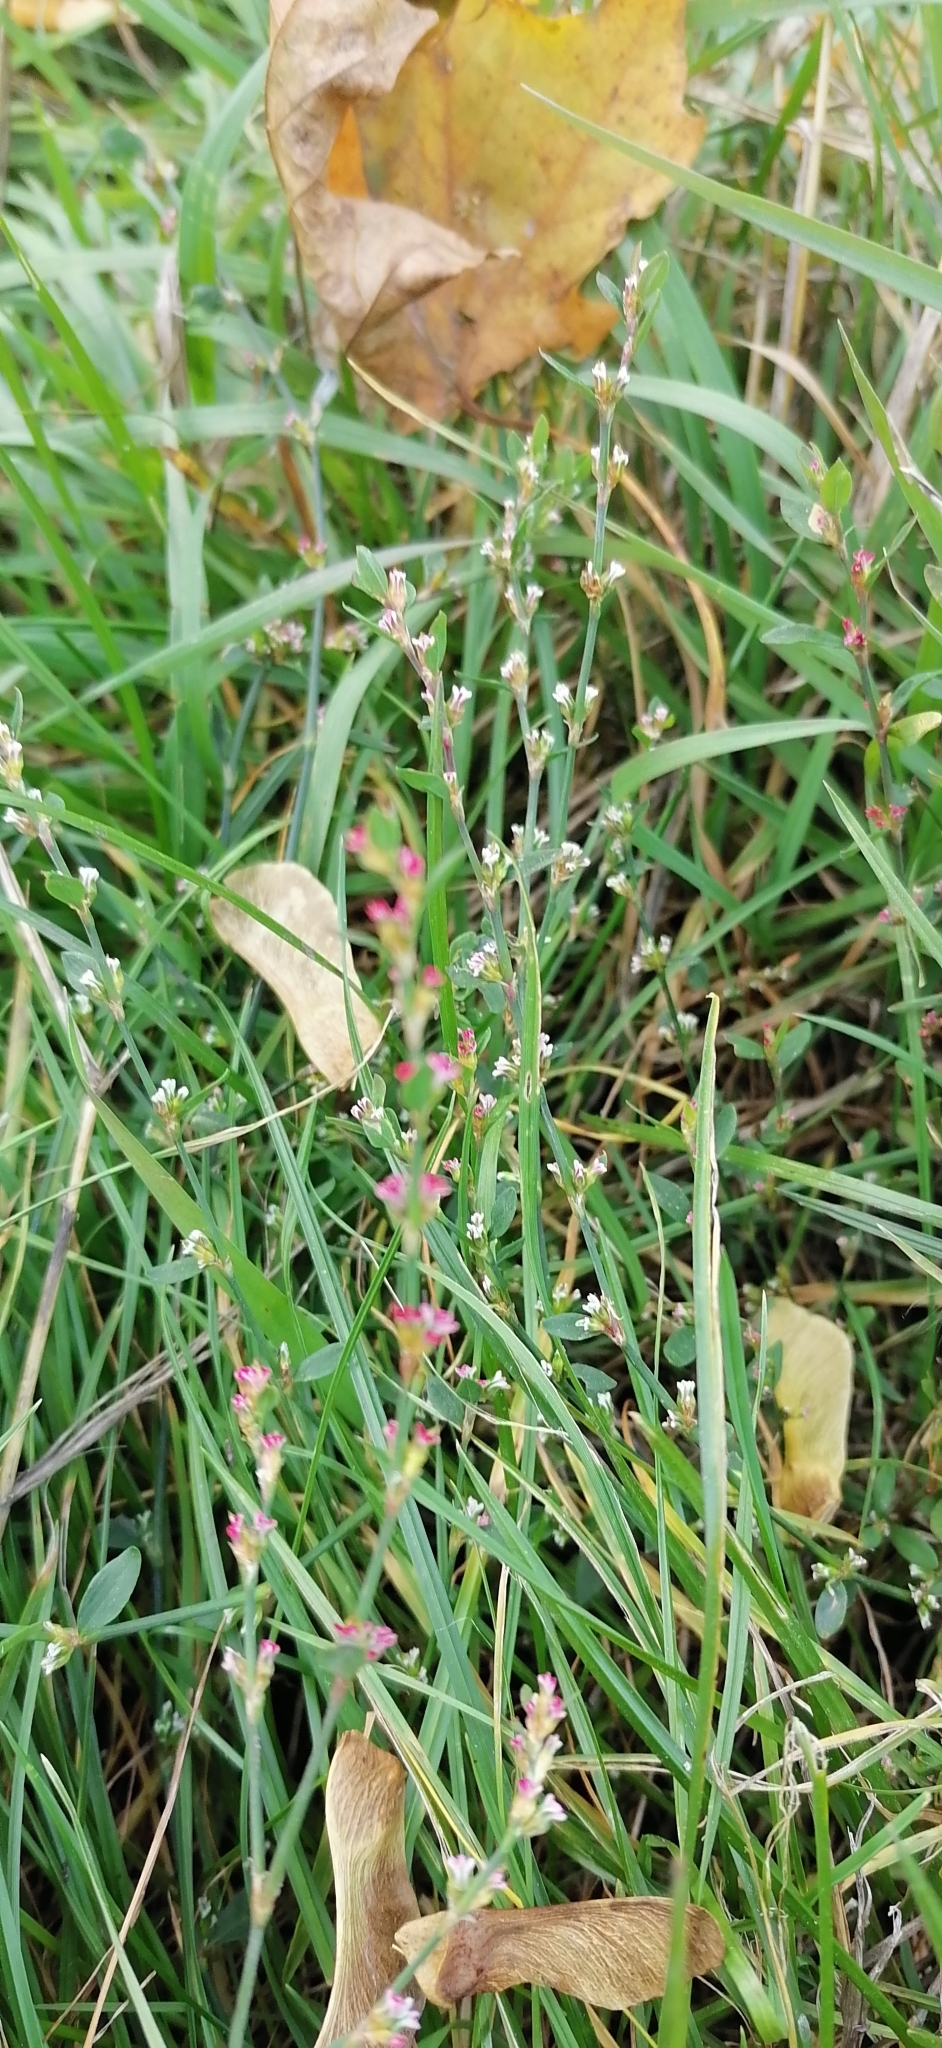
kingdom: Plantae
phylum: Tracheophyta
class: Magnoliopsida
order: Caryophyllales
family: Polygonaceae
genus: Polygonum
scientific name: Polygonum aviculare
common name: Prostrate knotweed
